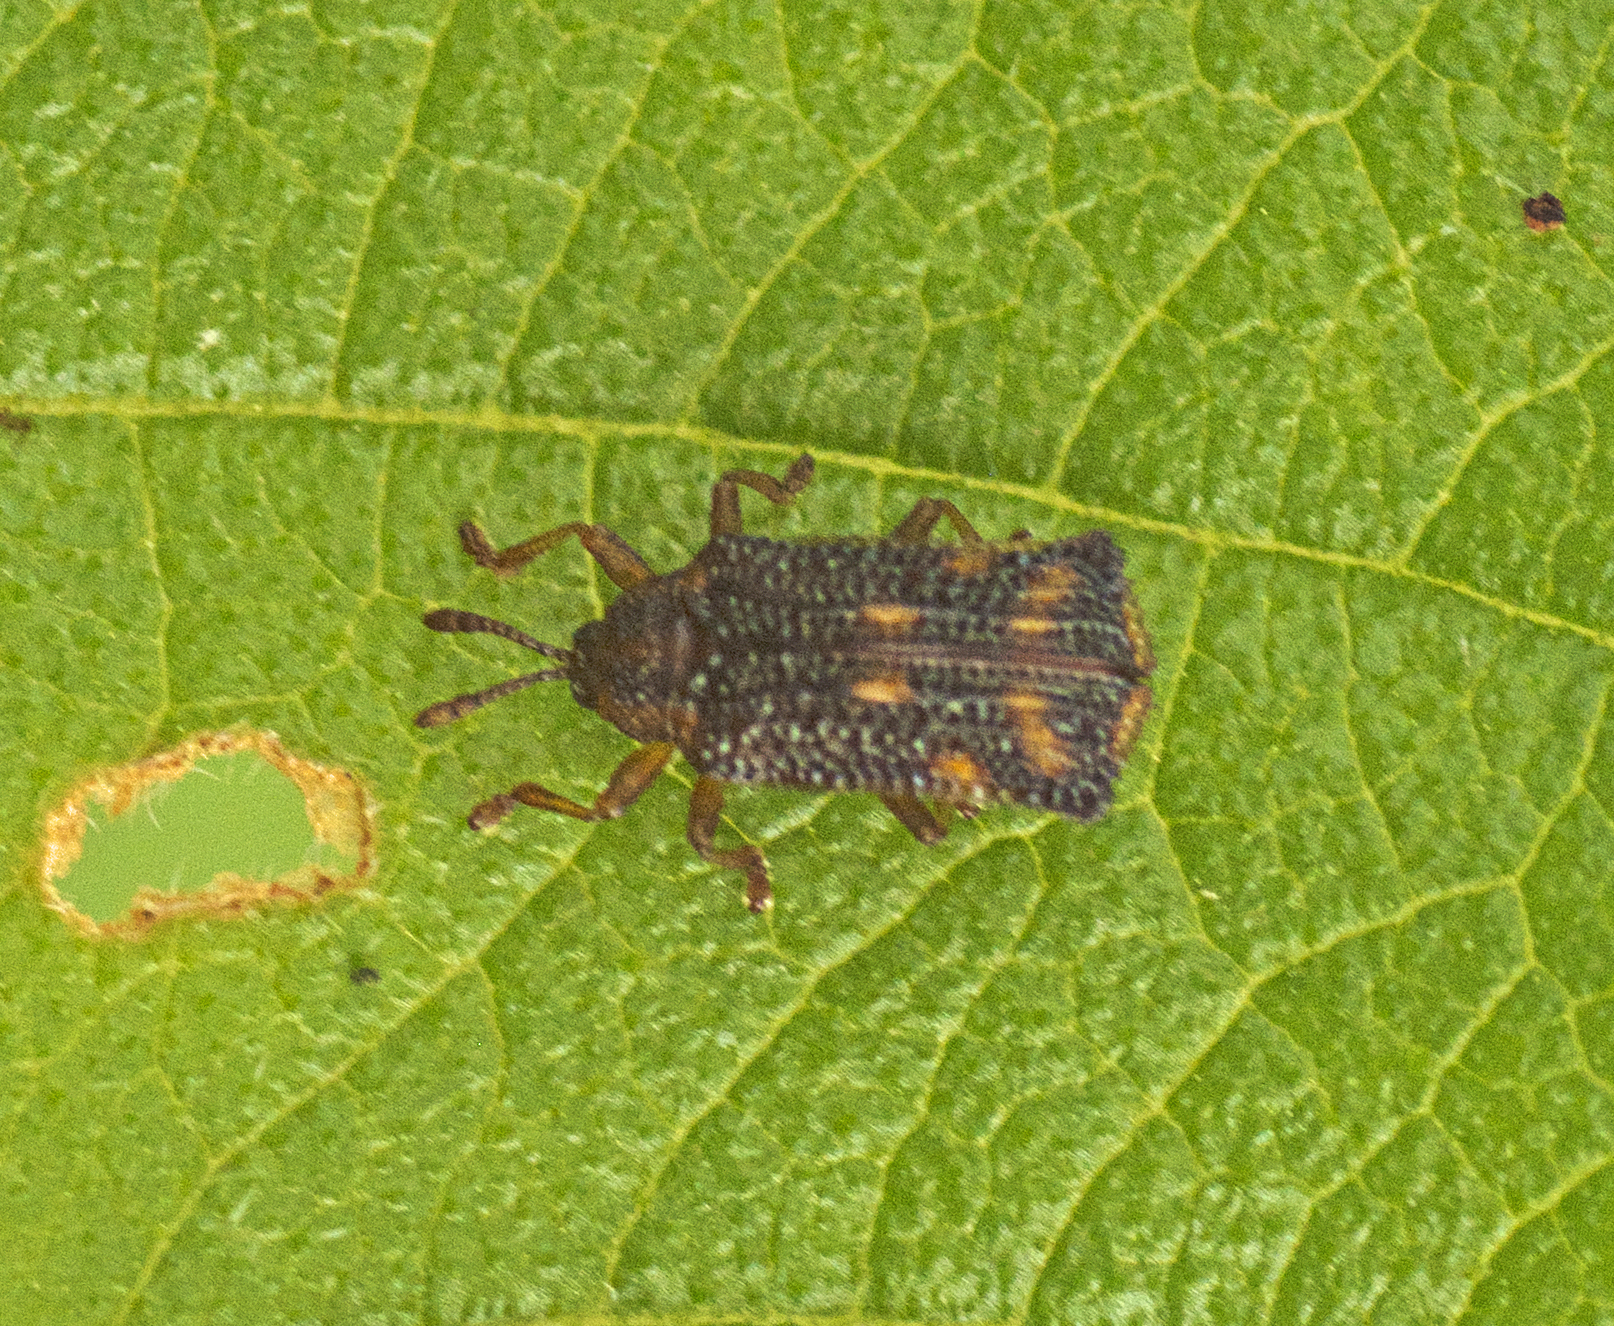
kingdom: Animalia
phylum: Arthropoda
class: Insecta
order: Coleoptera
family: Chrysomelidae
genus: Uroplata
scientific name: Uroplata girardi
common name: Lantana leafminer
